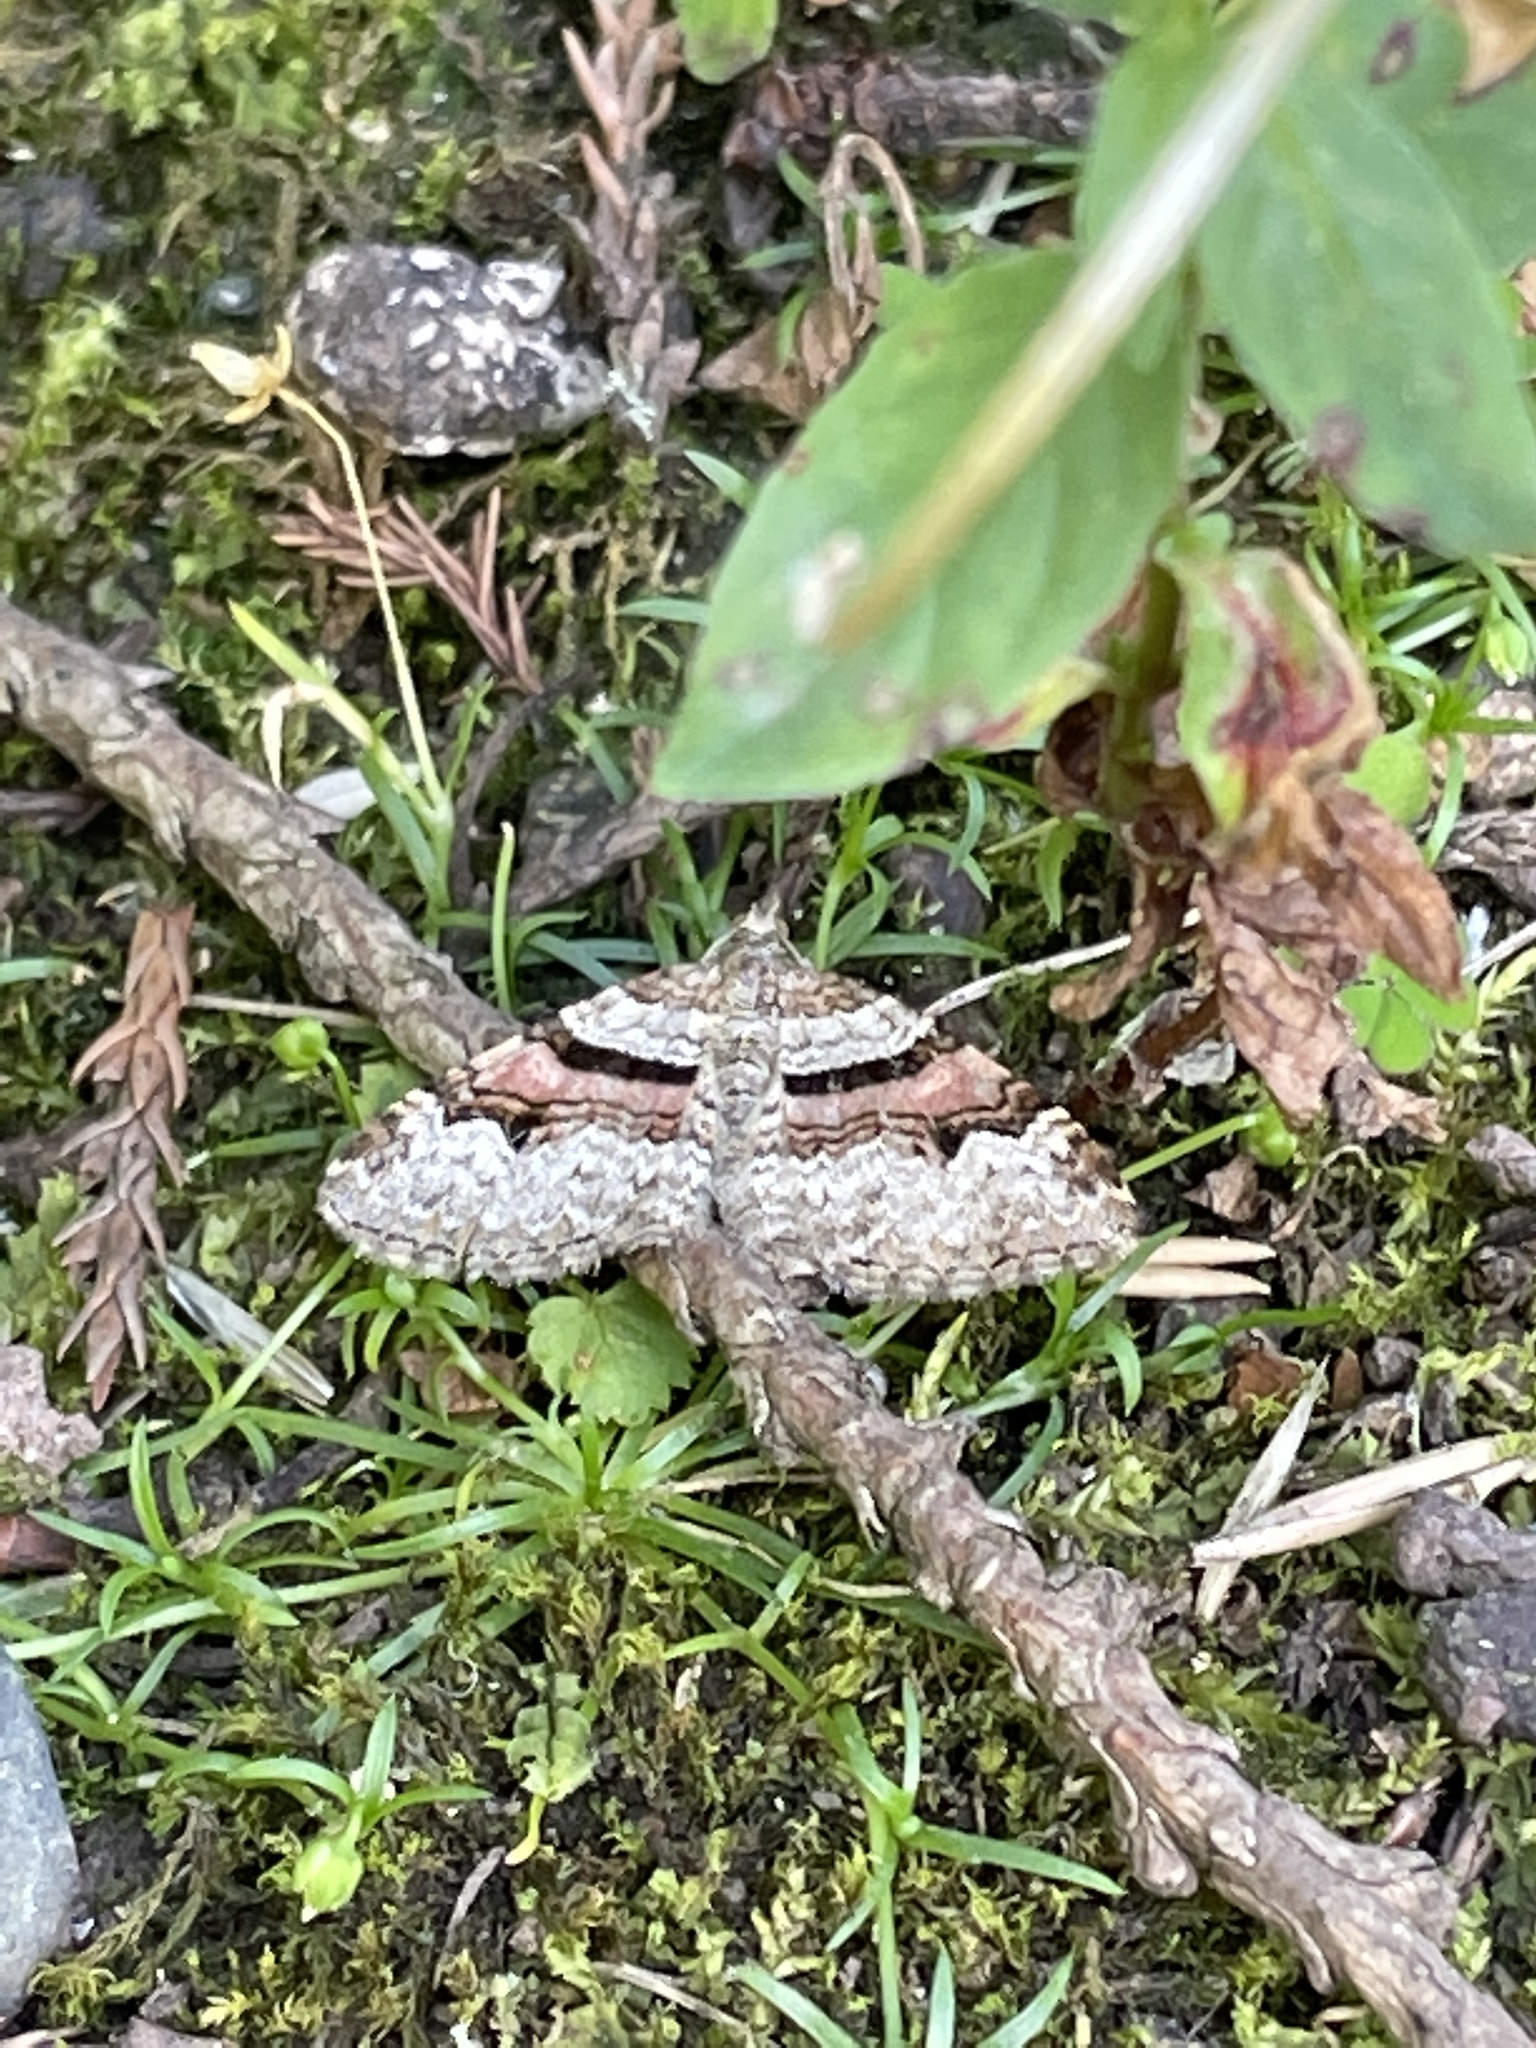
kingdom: Animalia
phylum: Arthropoda
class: Insecta
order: Lepidoptera
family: Geometridae
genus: Xanthorhoe
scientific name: Xanthorhoe designata
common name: Flame carpet
